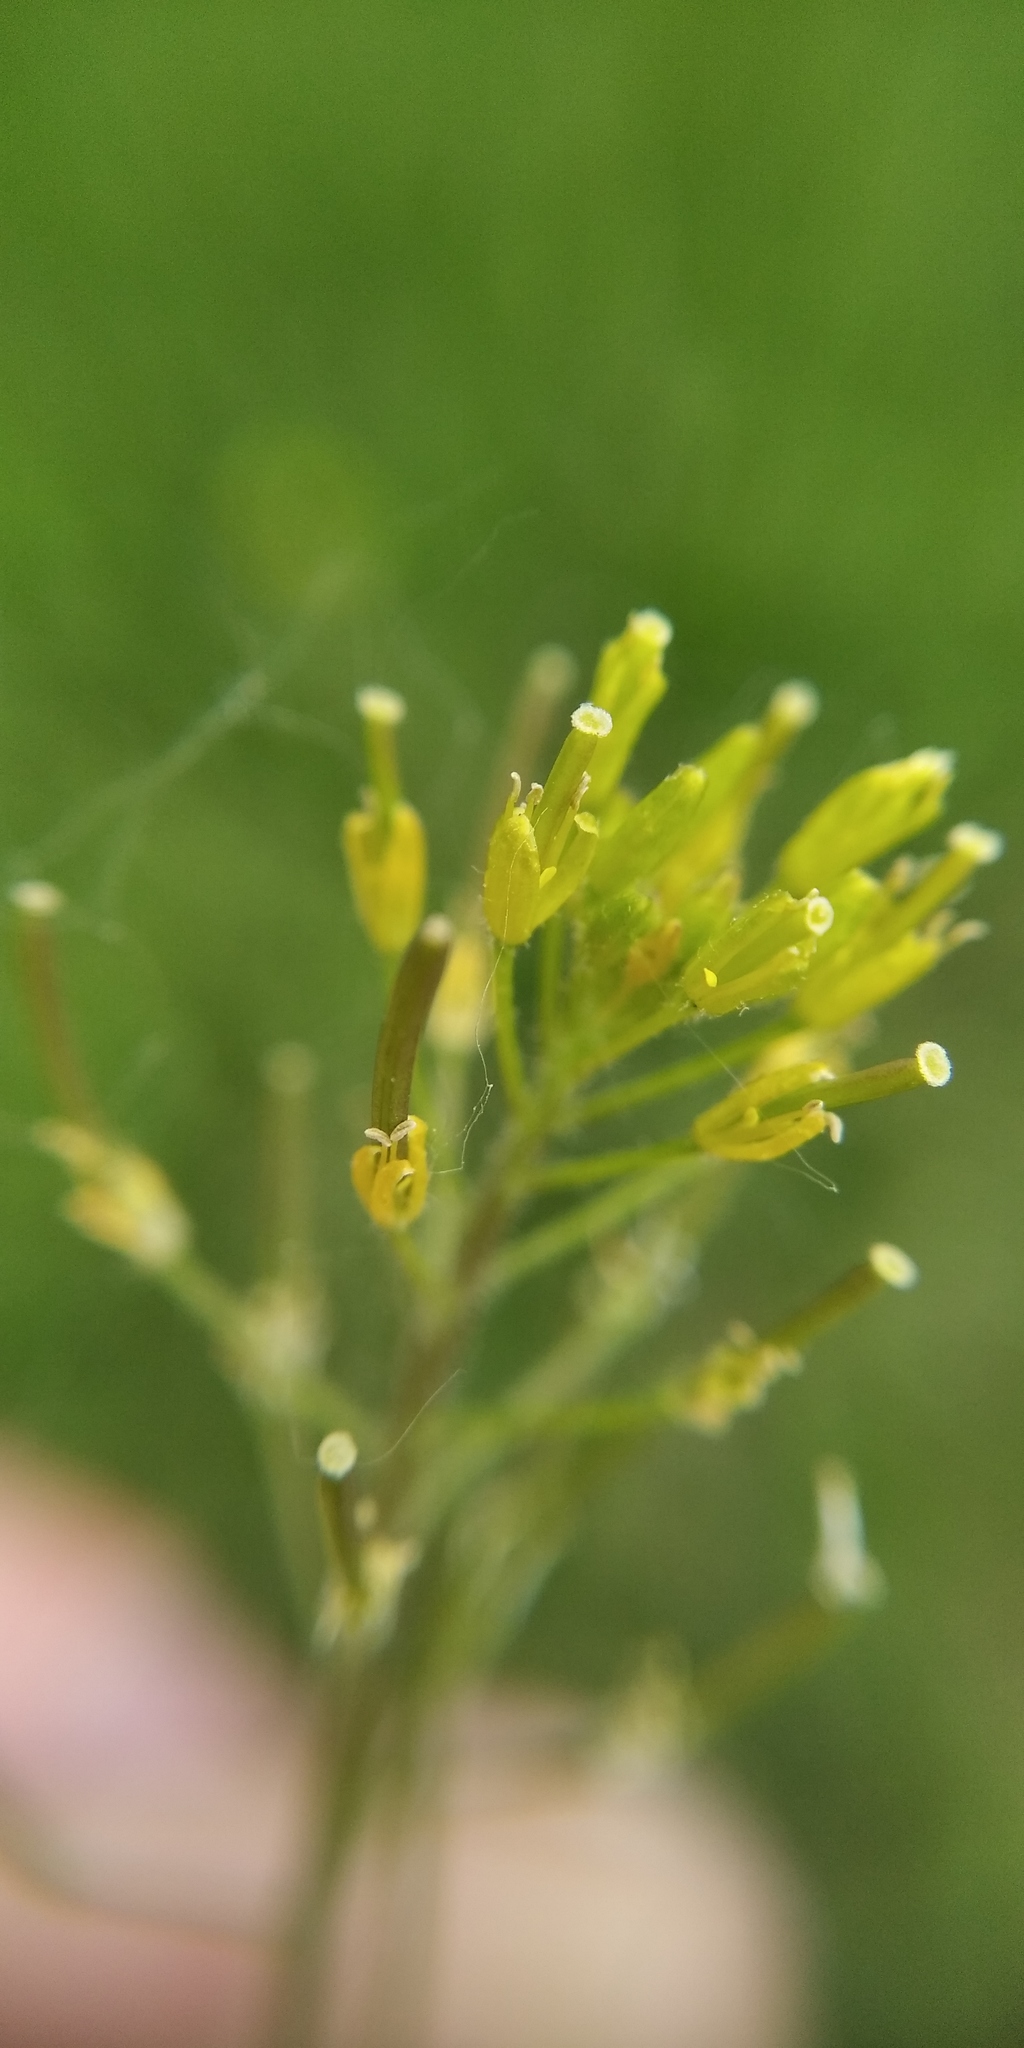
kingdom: Plantae
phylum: Tracheophyta
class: Magnoliopsida
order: Brassicales
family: Brassicaceae
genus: Descurainia
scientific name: Descurainia sophia
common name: Flixweed
